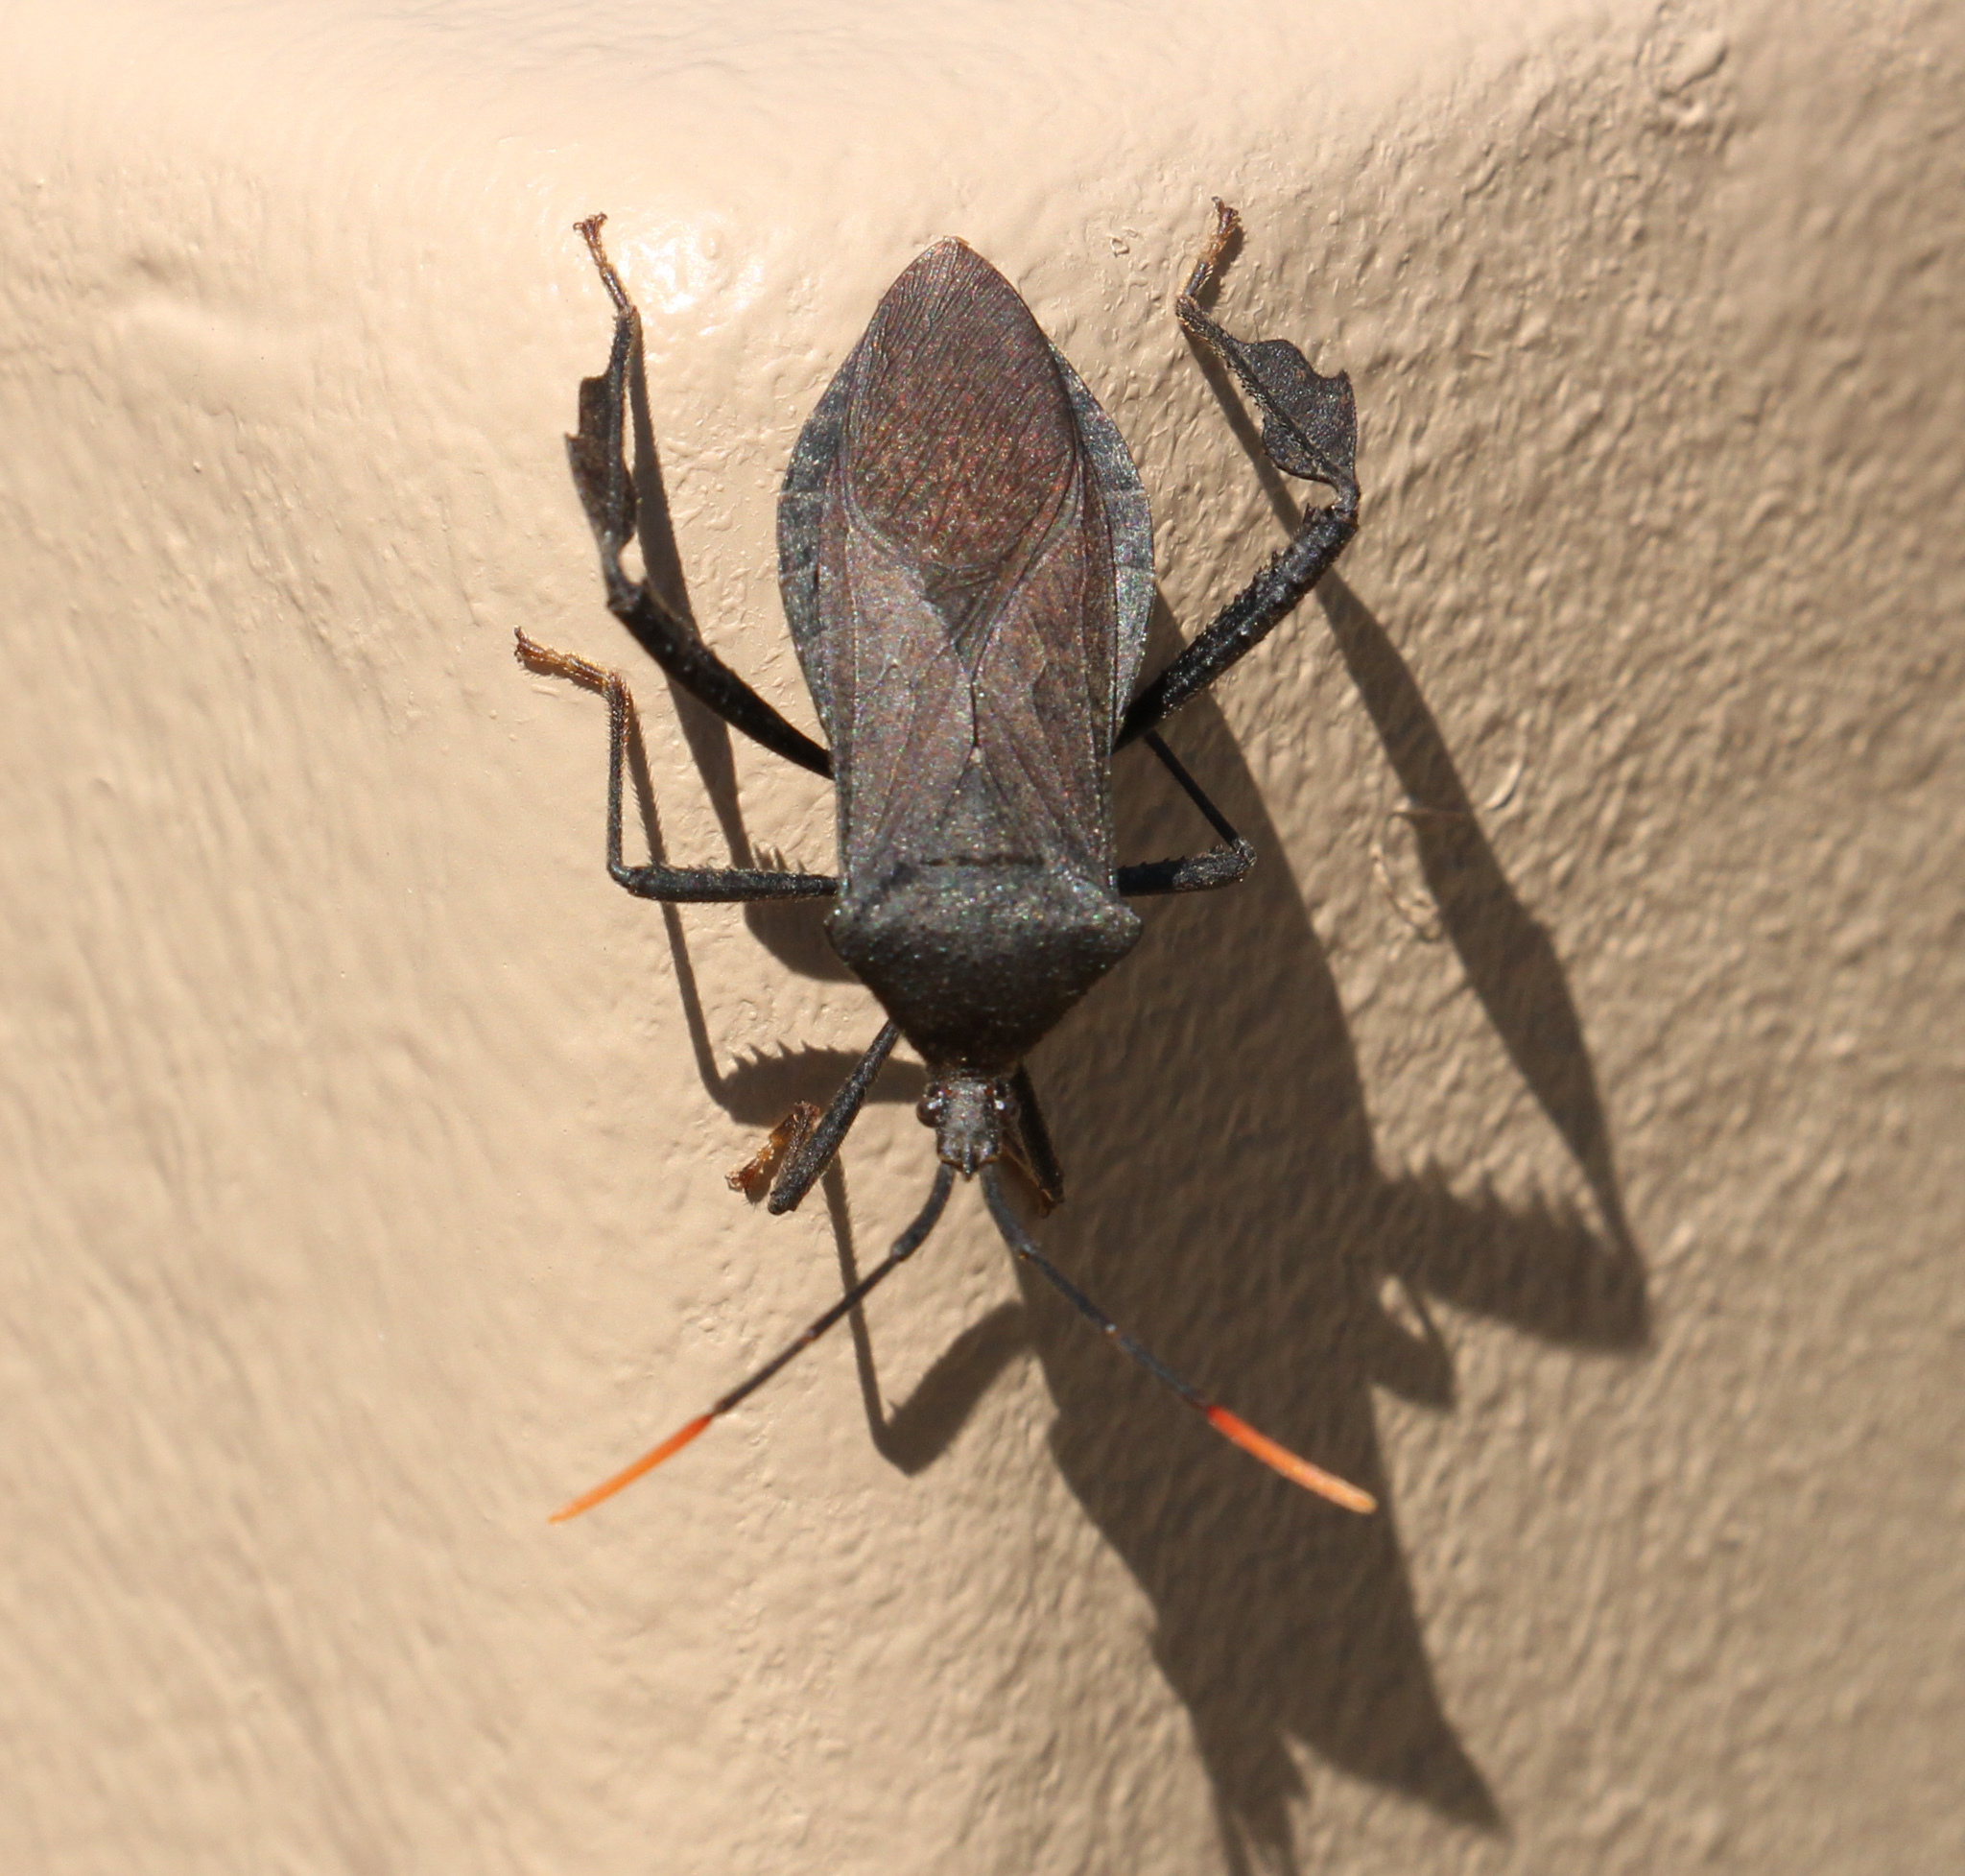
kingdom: Animalia
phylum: Arthropoda
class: Insecta
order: Hemiptera
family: Coreidae
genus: Acanthocephala
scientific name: Acanthocephala terminalis
